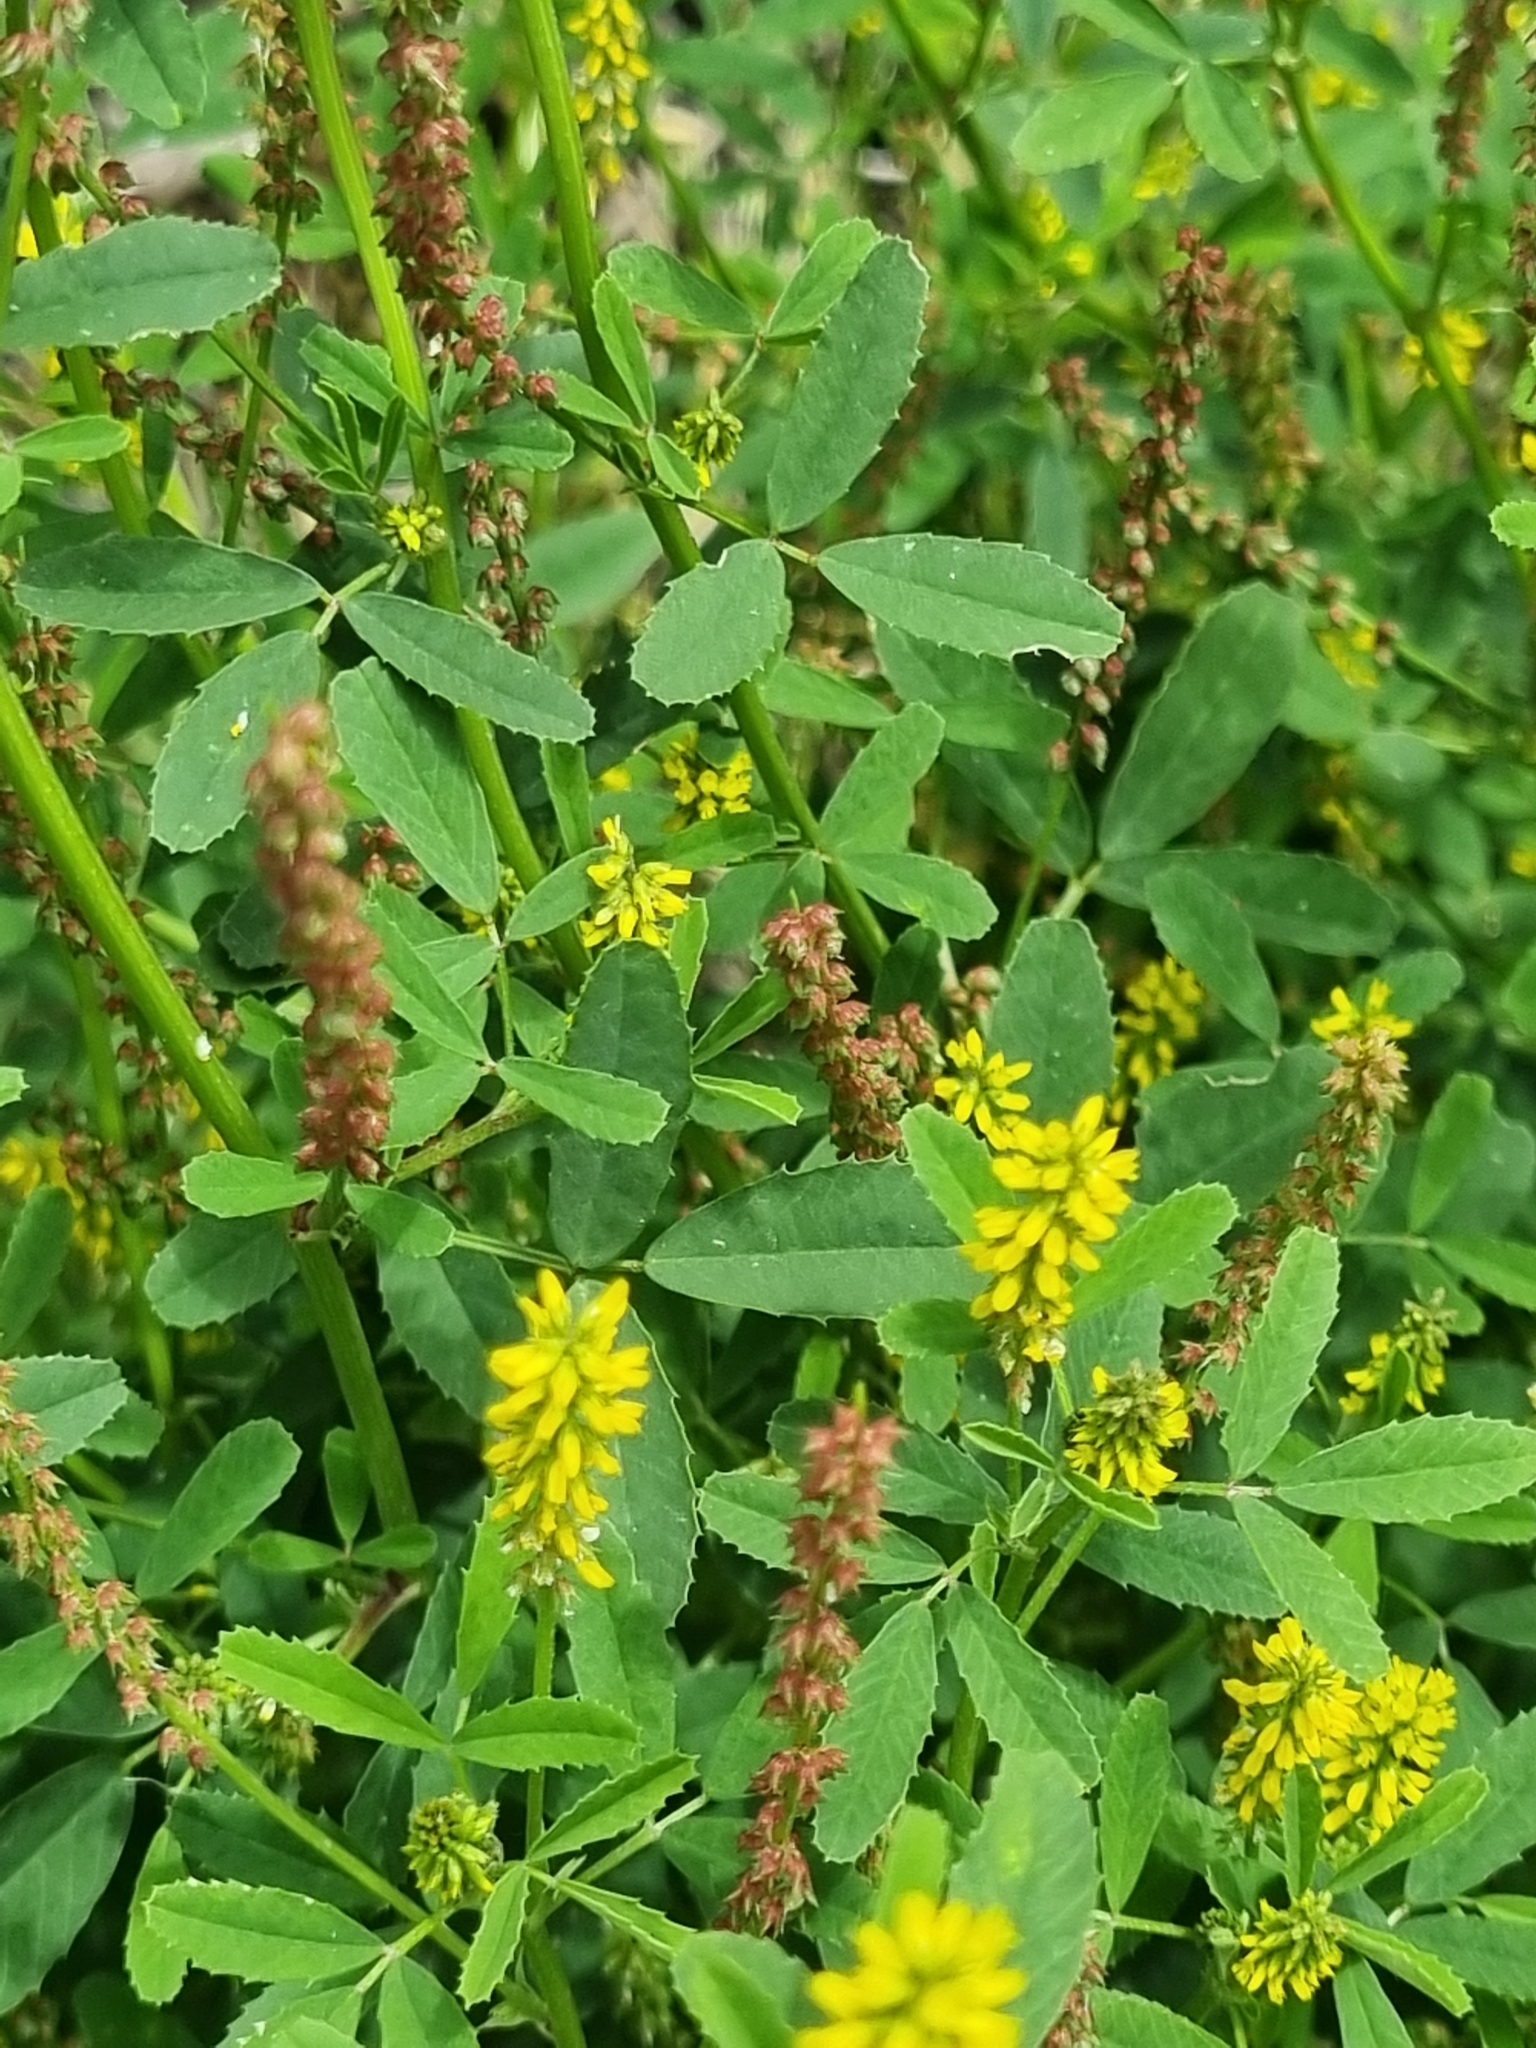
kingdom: Plantae
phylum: Tracheophyta
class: Magnoliopsida
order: Fabales
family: Fabaceae
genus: Melilotus
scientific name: Melilotus indicus
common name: Small melilot
